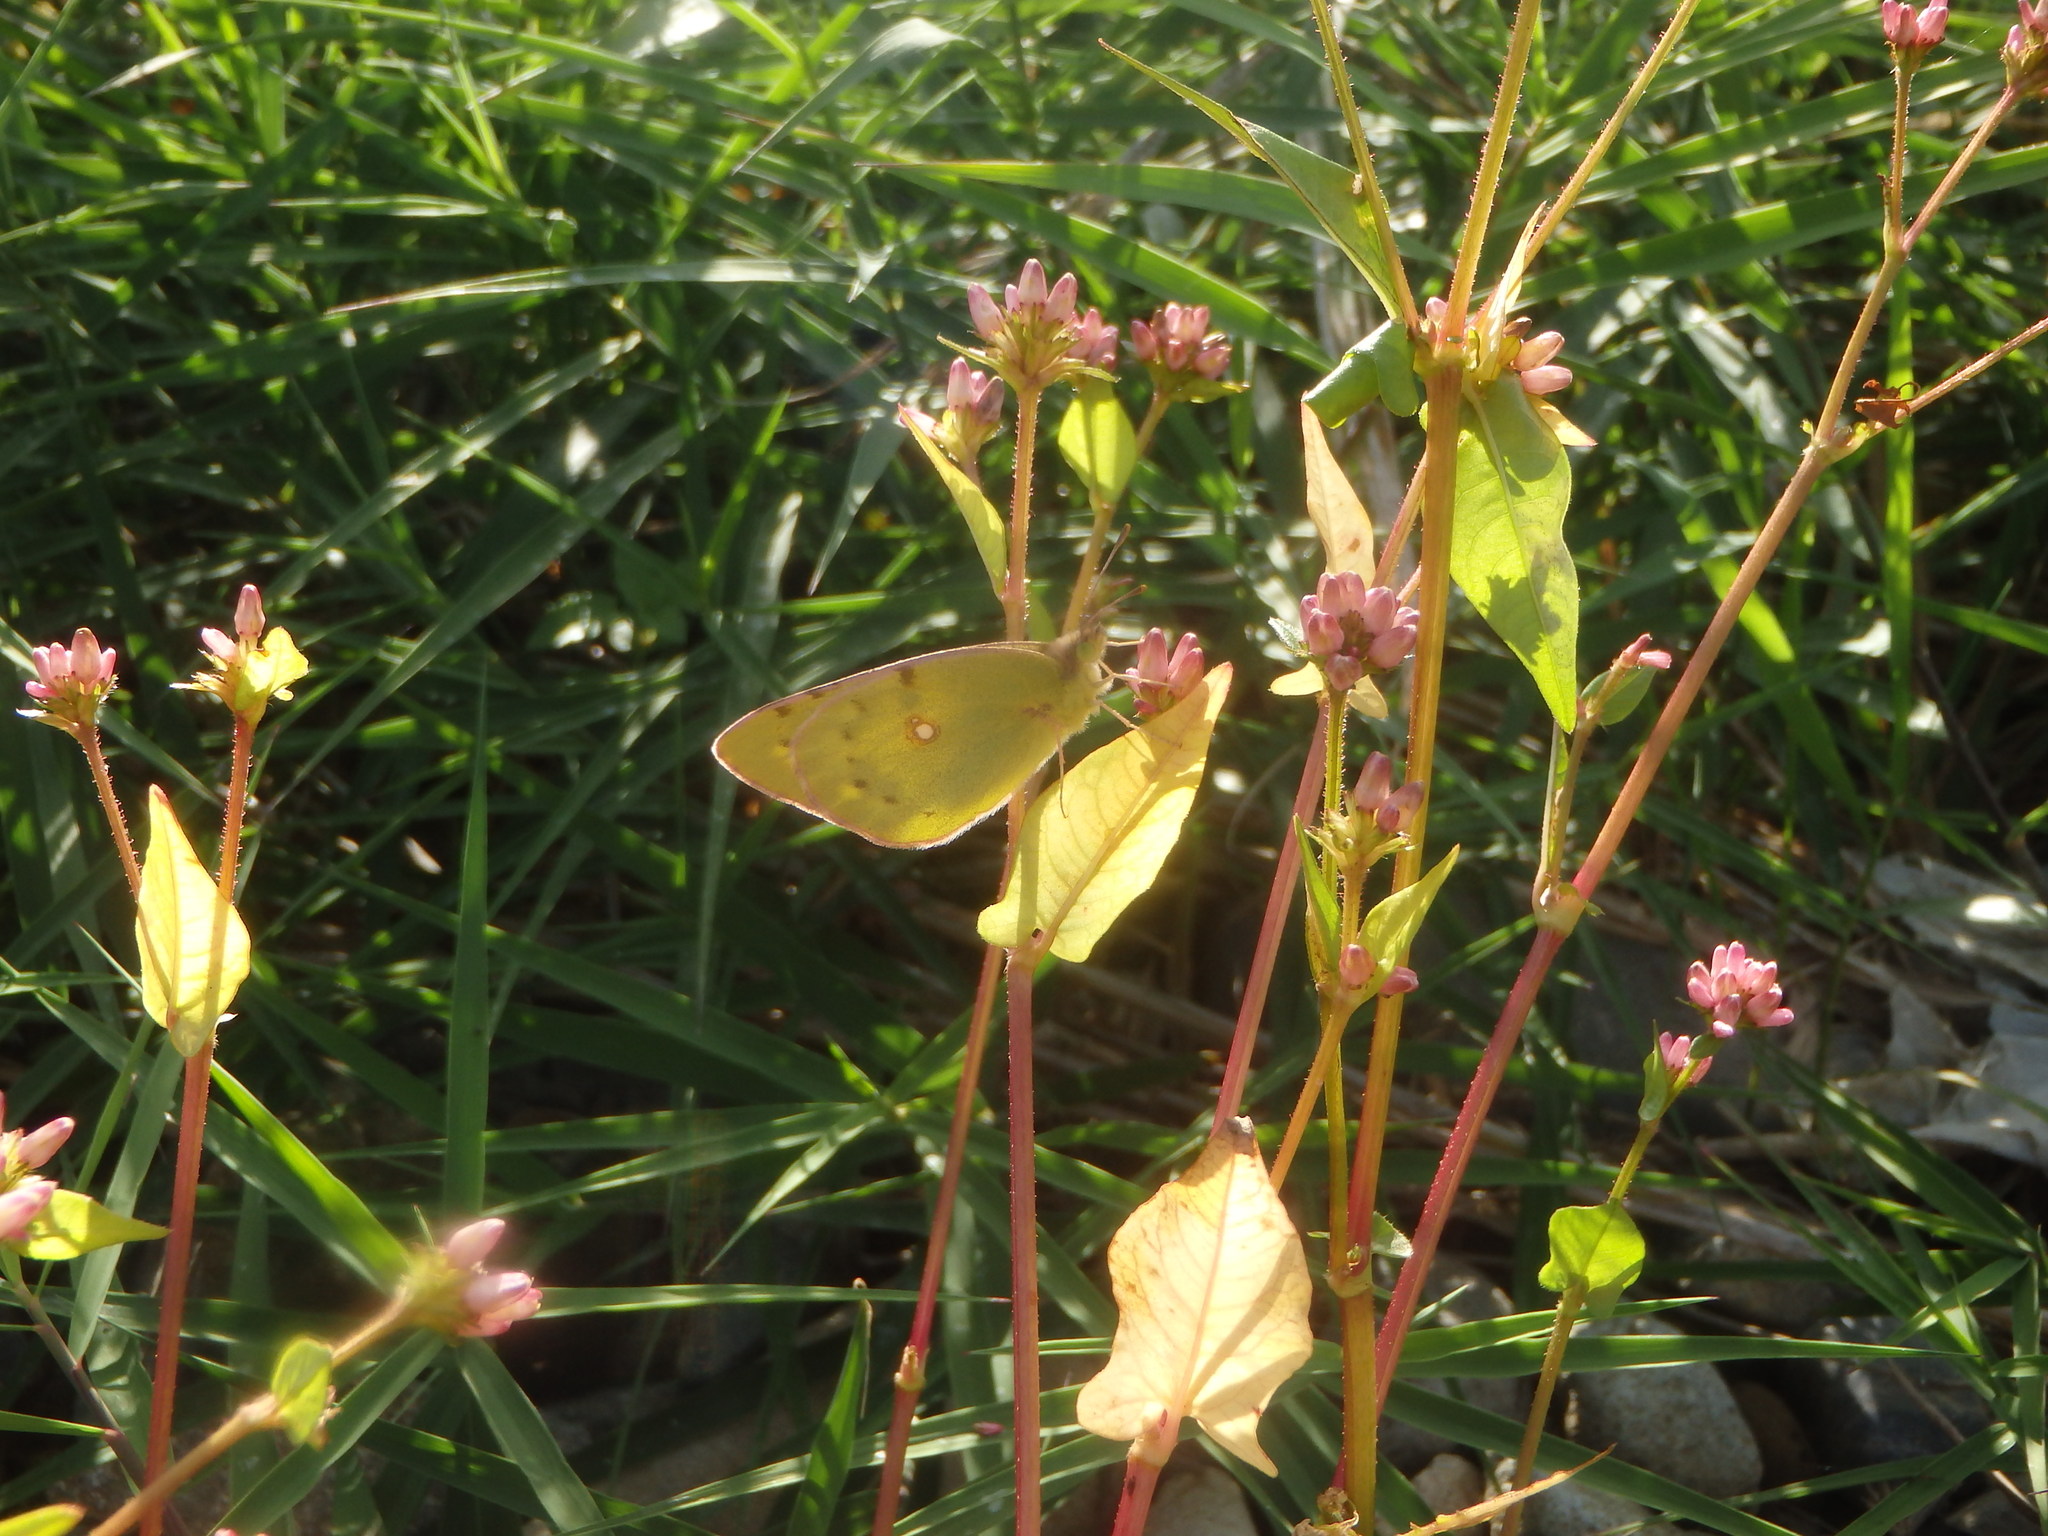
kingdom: Animalia
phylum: Arthropoda
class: Insecta
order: Lepidoptera
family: Pieridae
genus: Colias
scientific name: Colias poliographus
